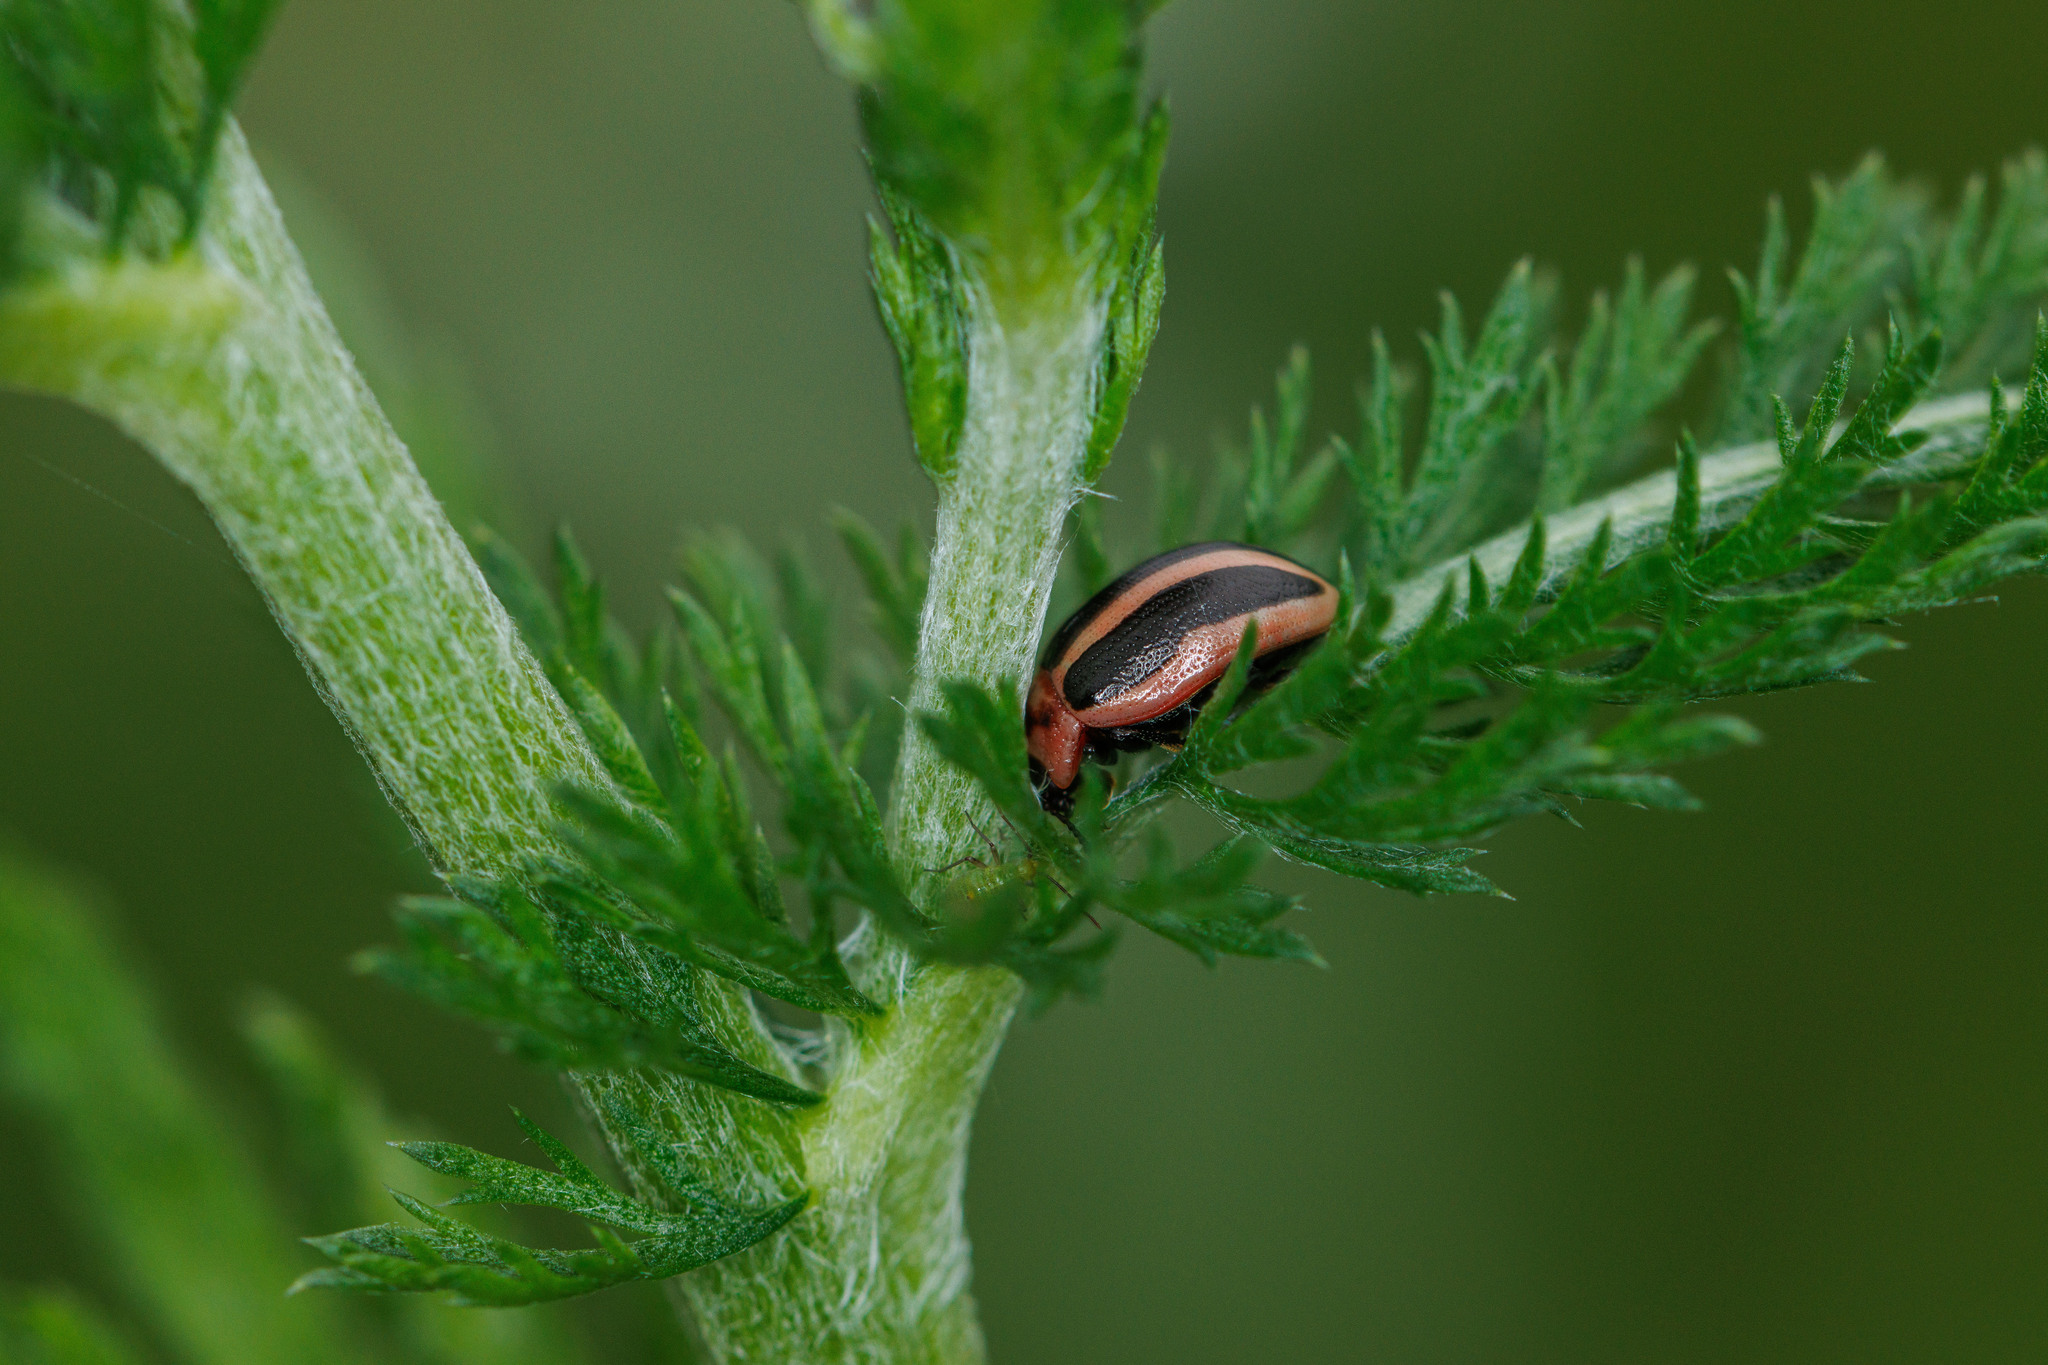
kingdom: Animalia
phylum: Arthropoda
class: Insecta
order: Coleoptera
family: Chrysomelidae
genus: Calligrapha
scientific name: Calligrapha californica
